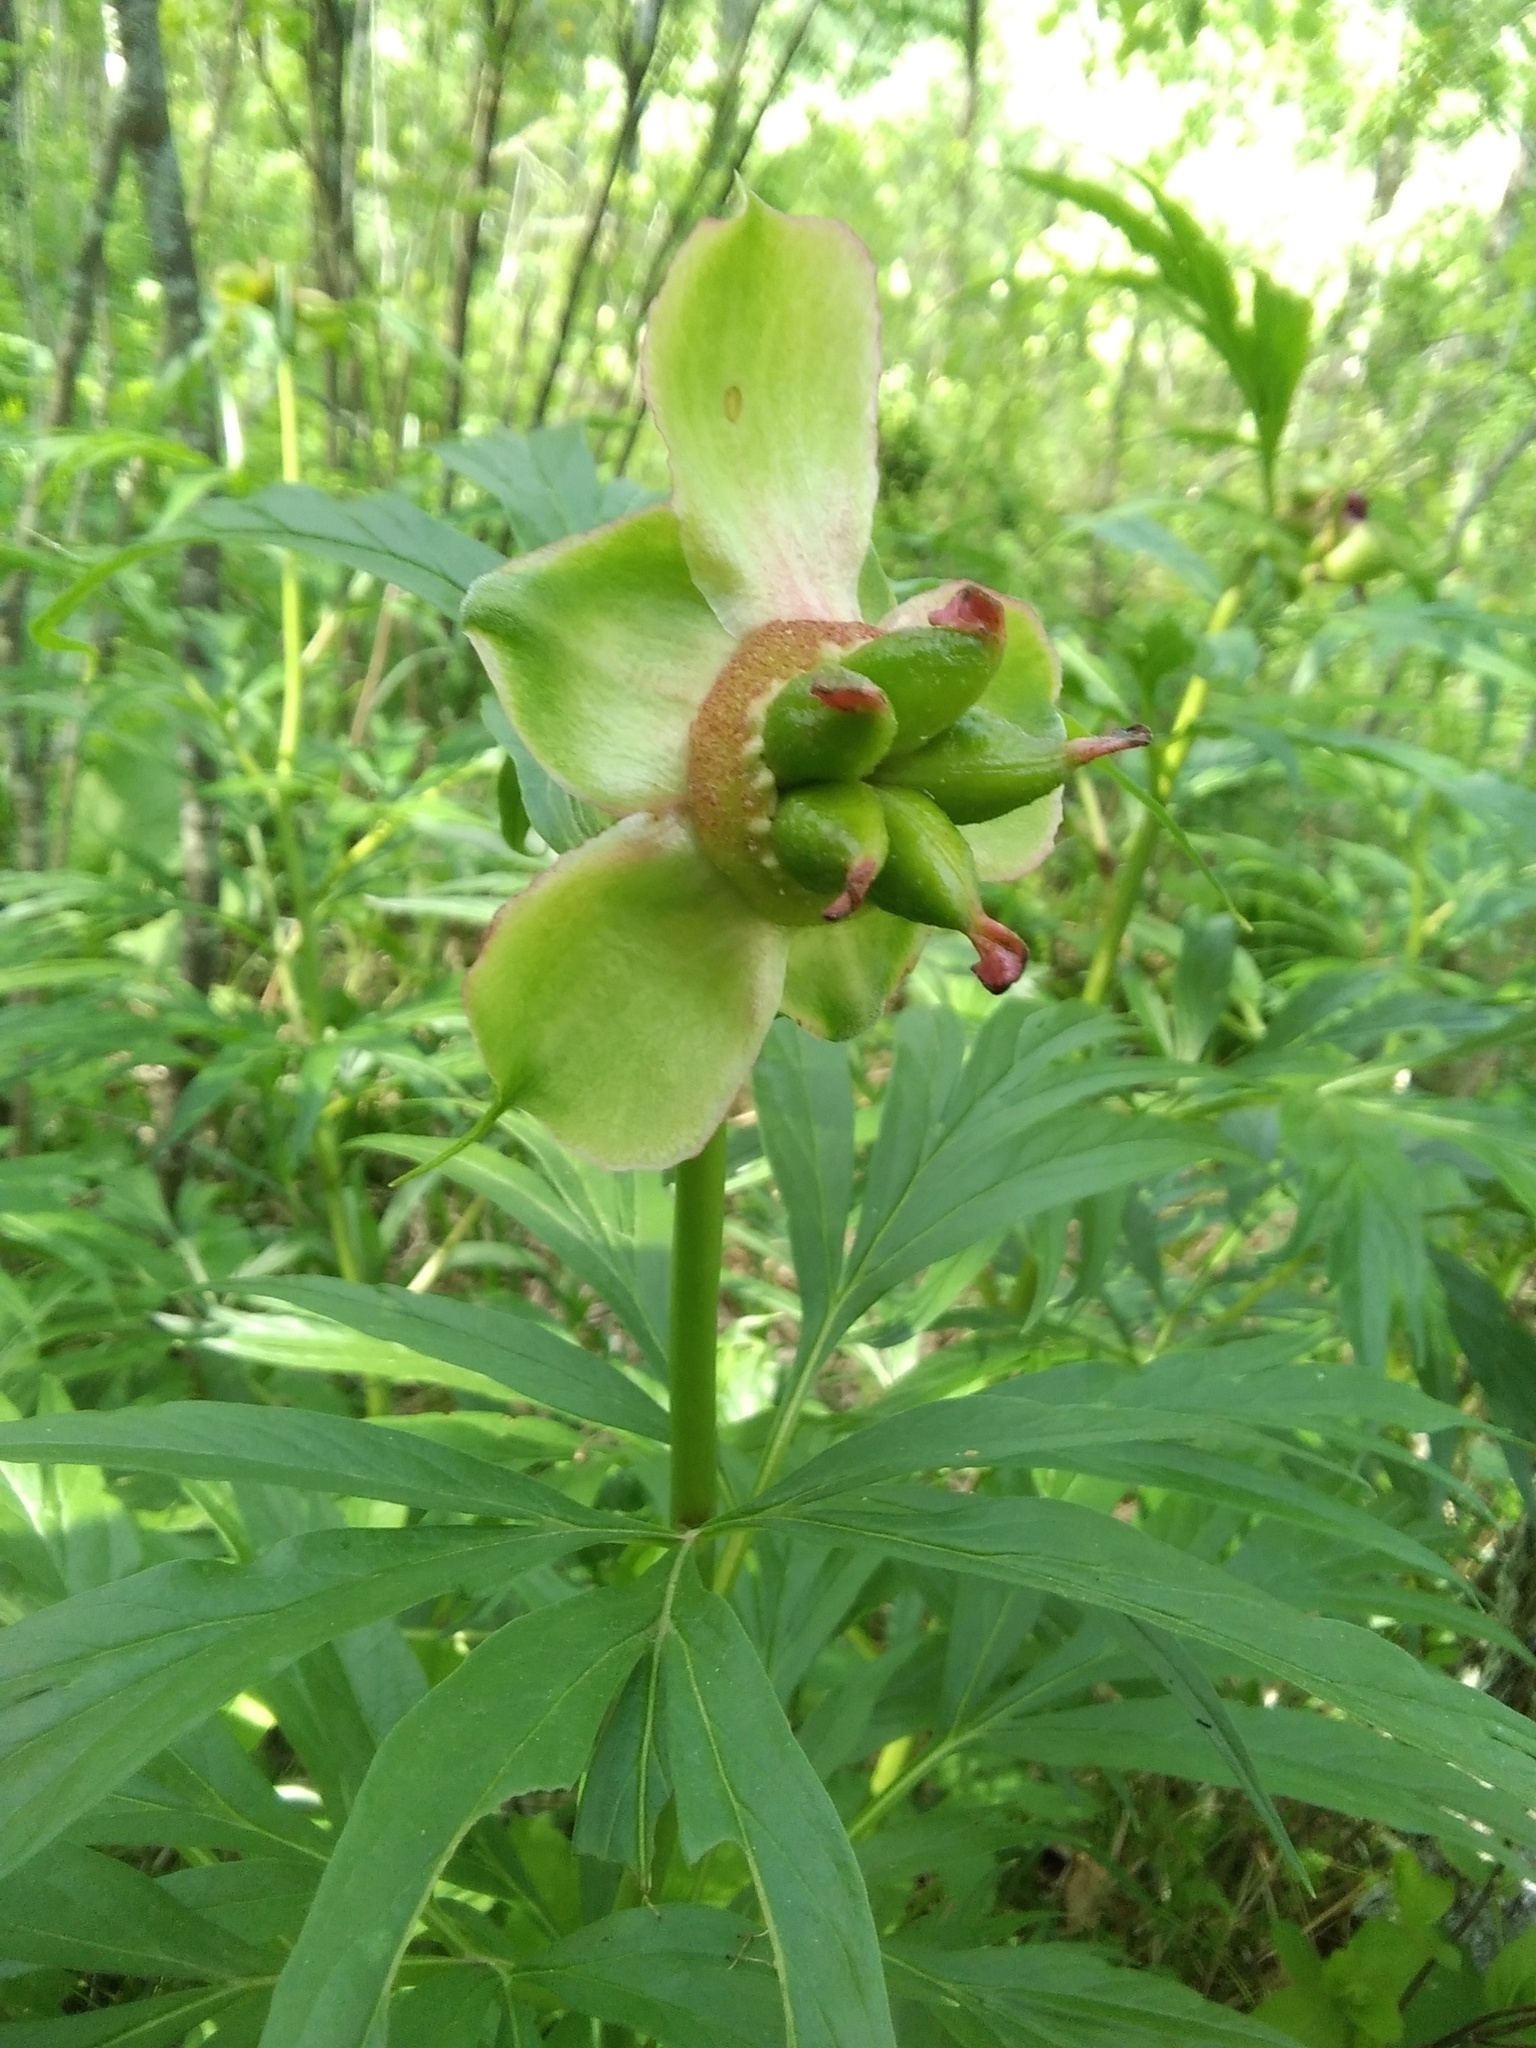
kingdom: Plantae
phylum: Tracheophyta
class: Magnoliopsida
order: Saxifragales
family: Paeoniaceae
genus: Paeonia
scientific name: Paeonia anomala
